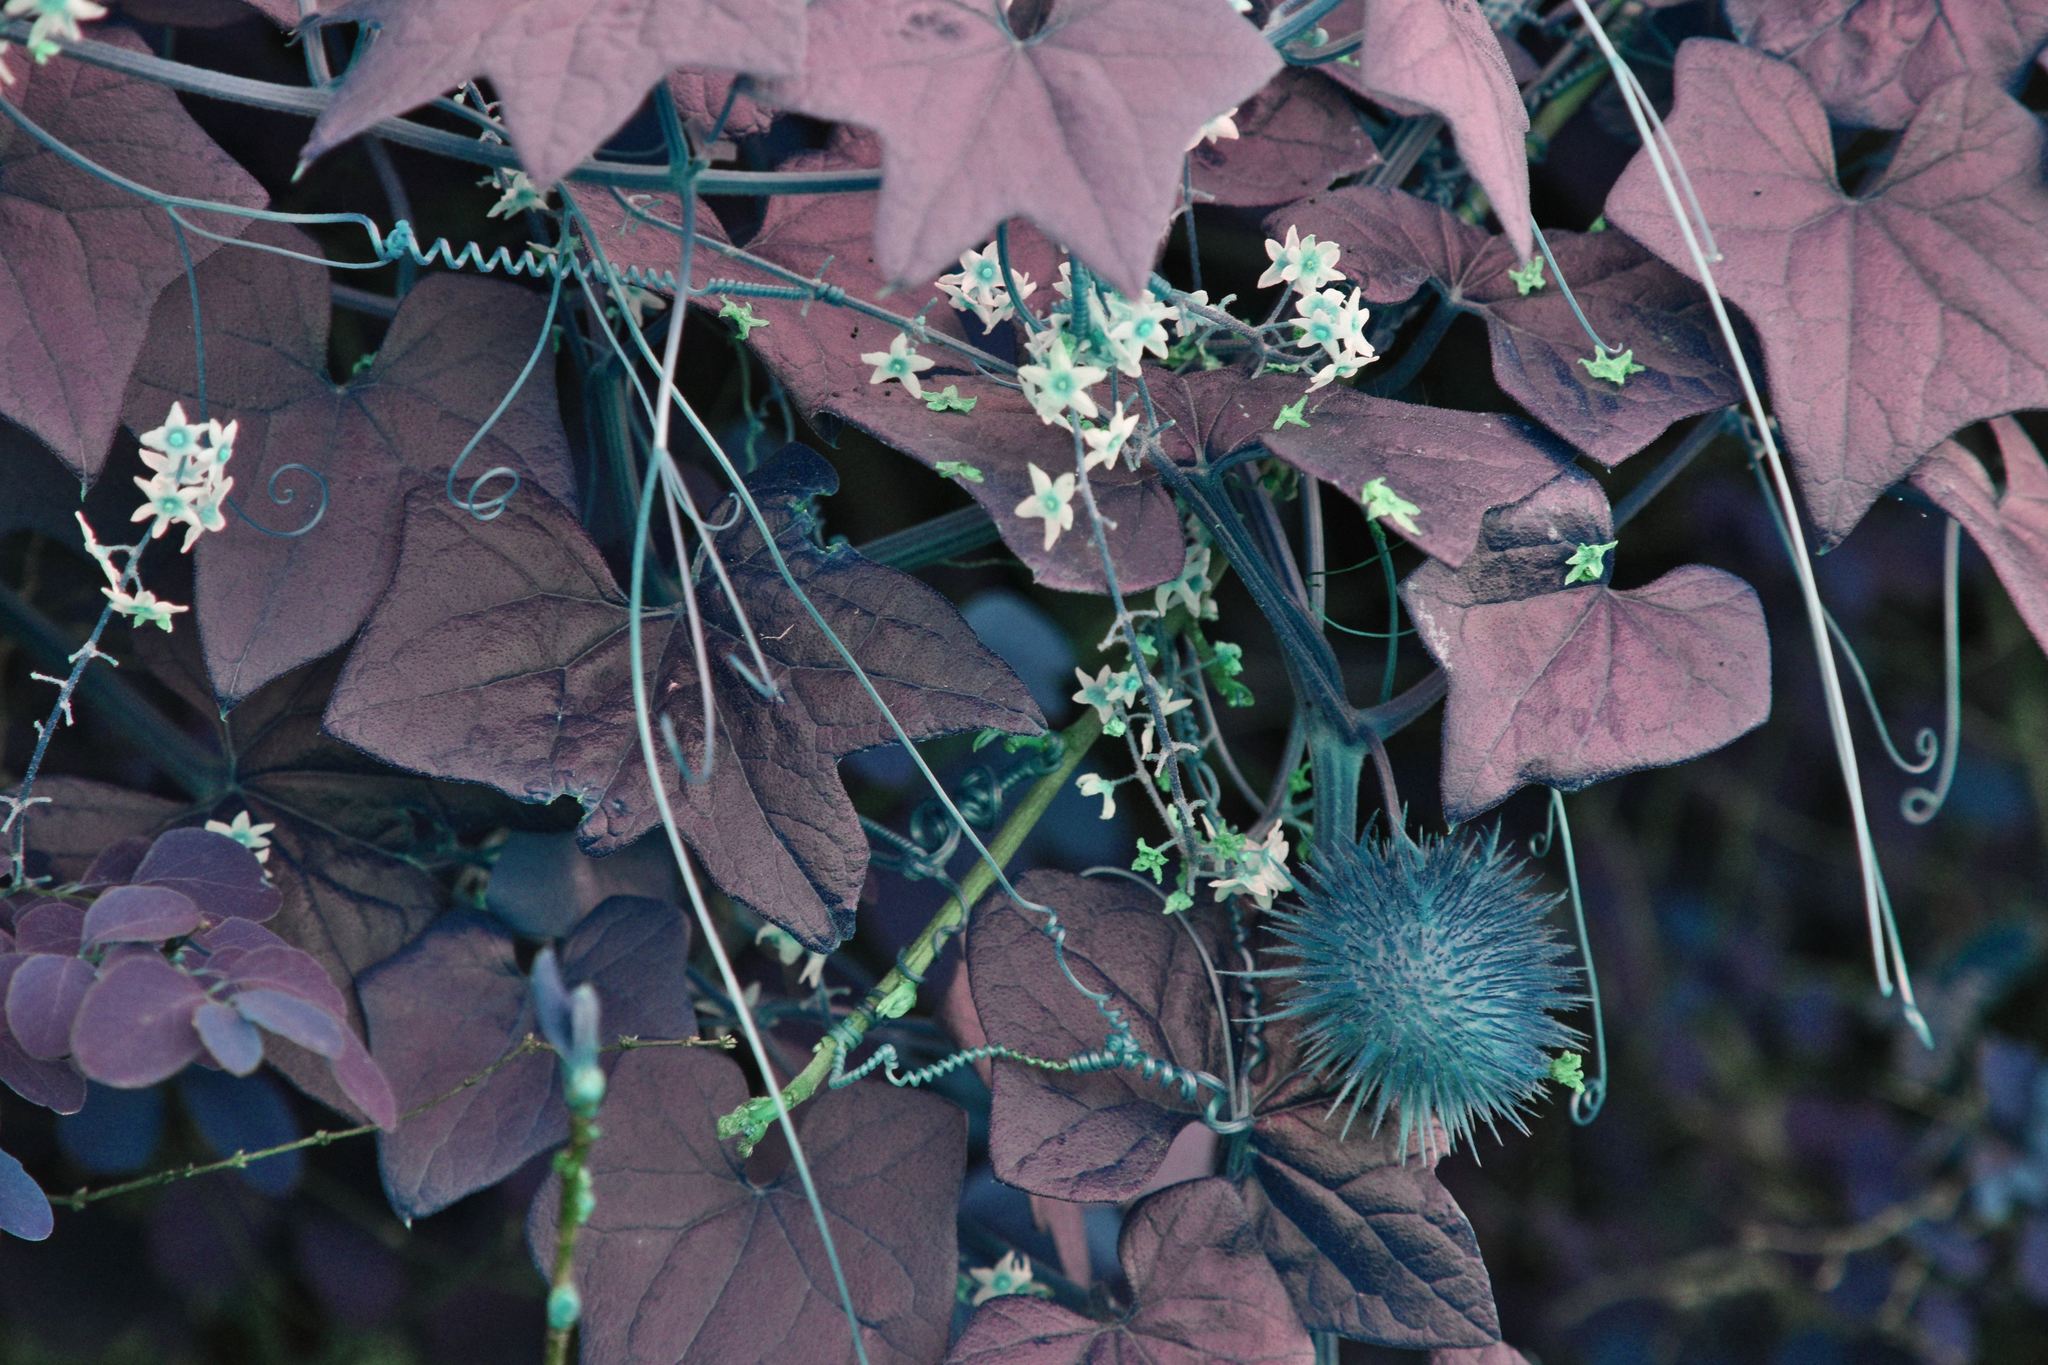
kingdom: Plantae
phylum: Tracheophyta
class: Magnoliopsida
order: Cucurbitales
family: Cucurbitaceae
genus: Marah
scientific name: Marah fabacea
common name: California manroot
